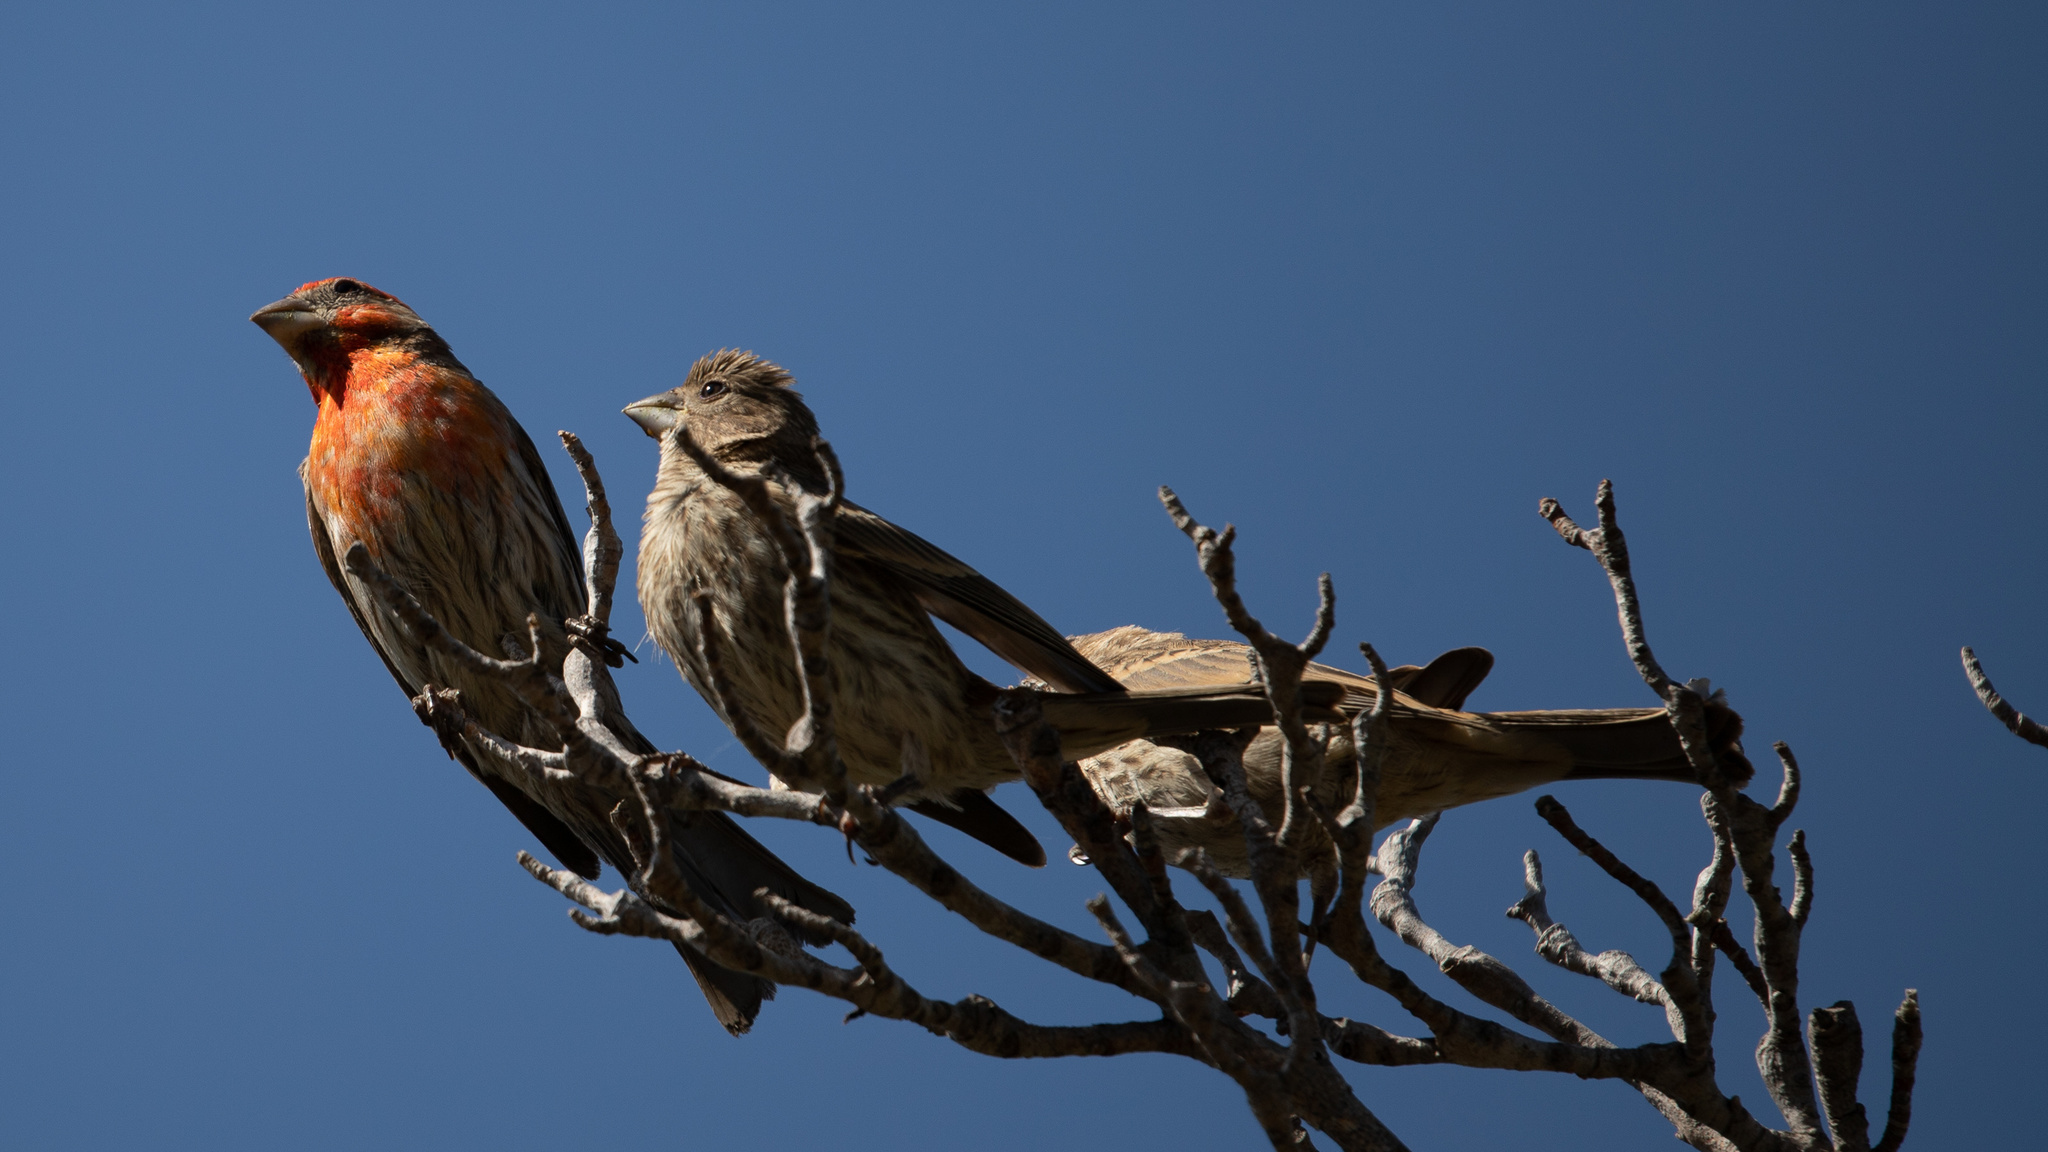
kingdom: Animalia
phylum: Chordata
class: Aves
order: Passeriformes
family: Fringillidae
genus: Haemorhous
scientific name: Haemorhous mexicanus
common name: House finch
